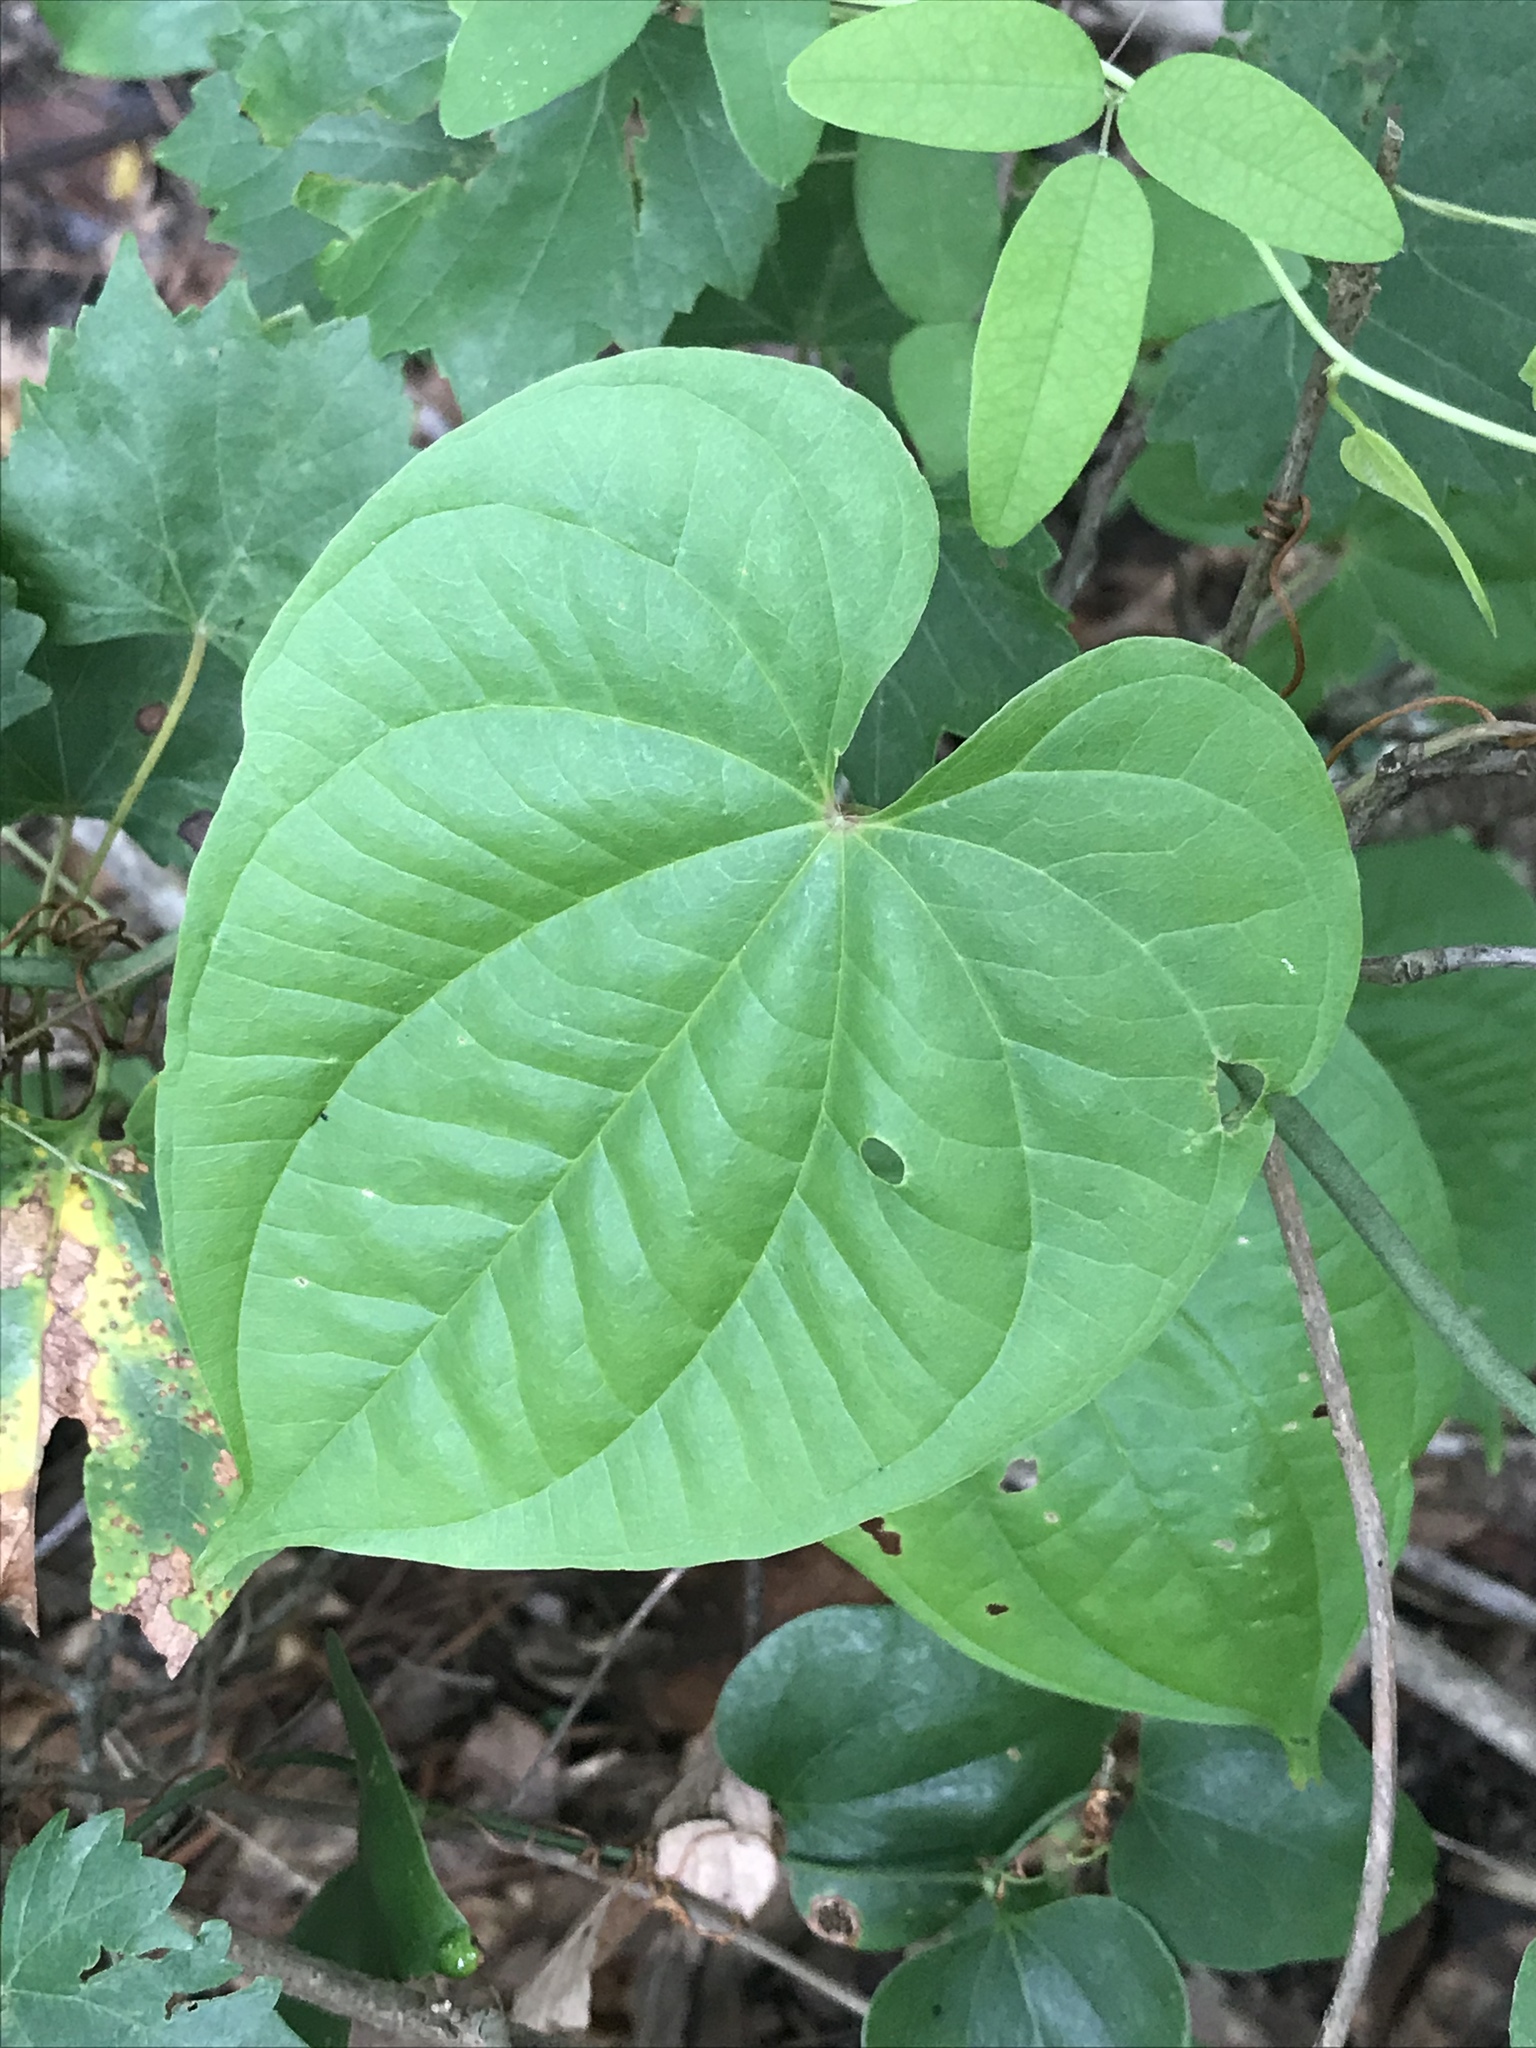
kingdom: Plantae
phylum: Tracheophyta
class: Liliopsida
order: Dioscoreales
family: Dioscoreaceae
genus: Dioscorea
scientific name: Dioscorea bulbifera
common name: Air yam
